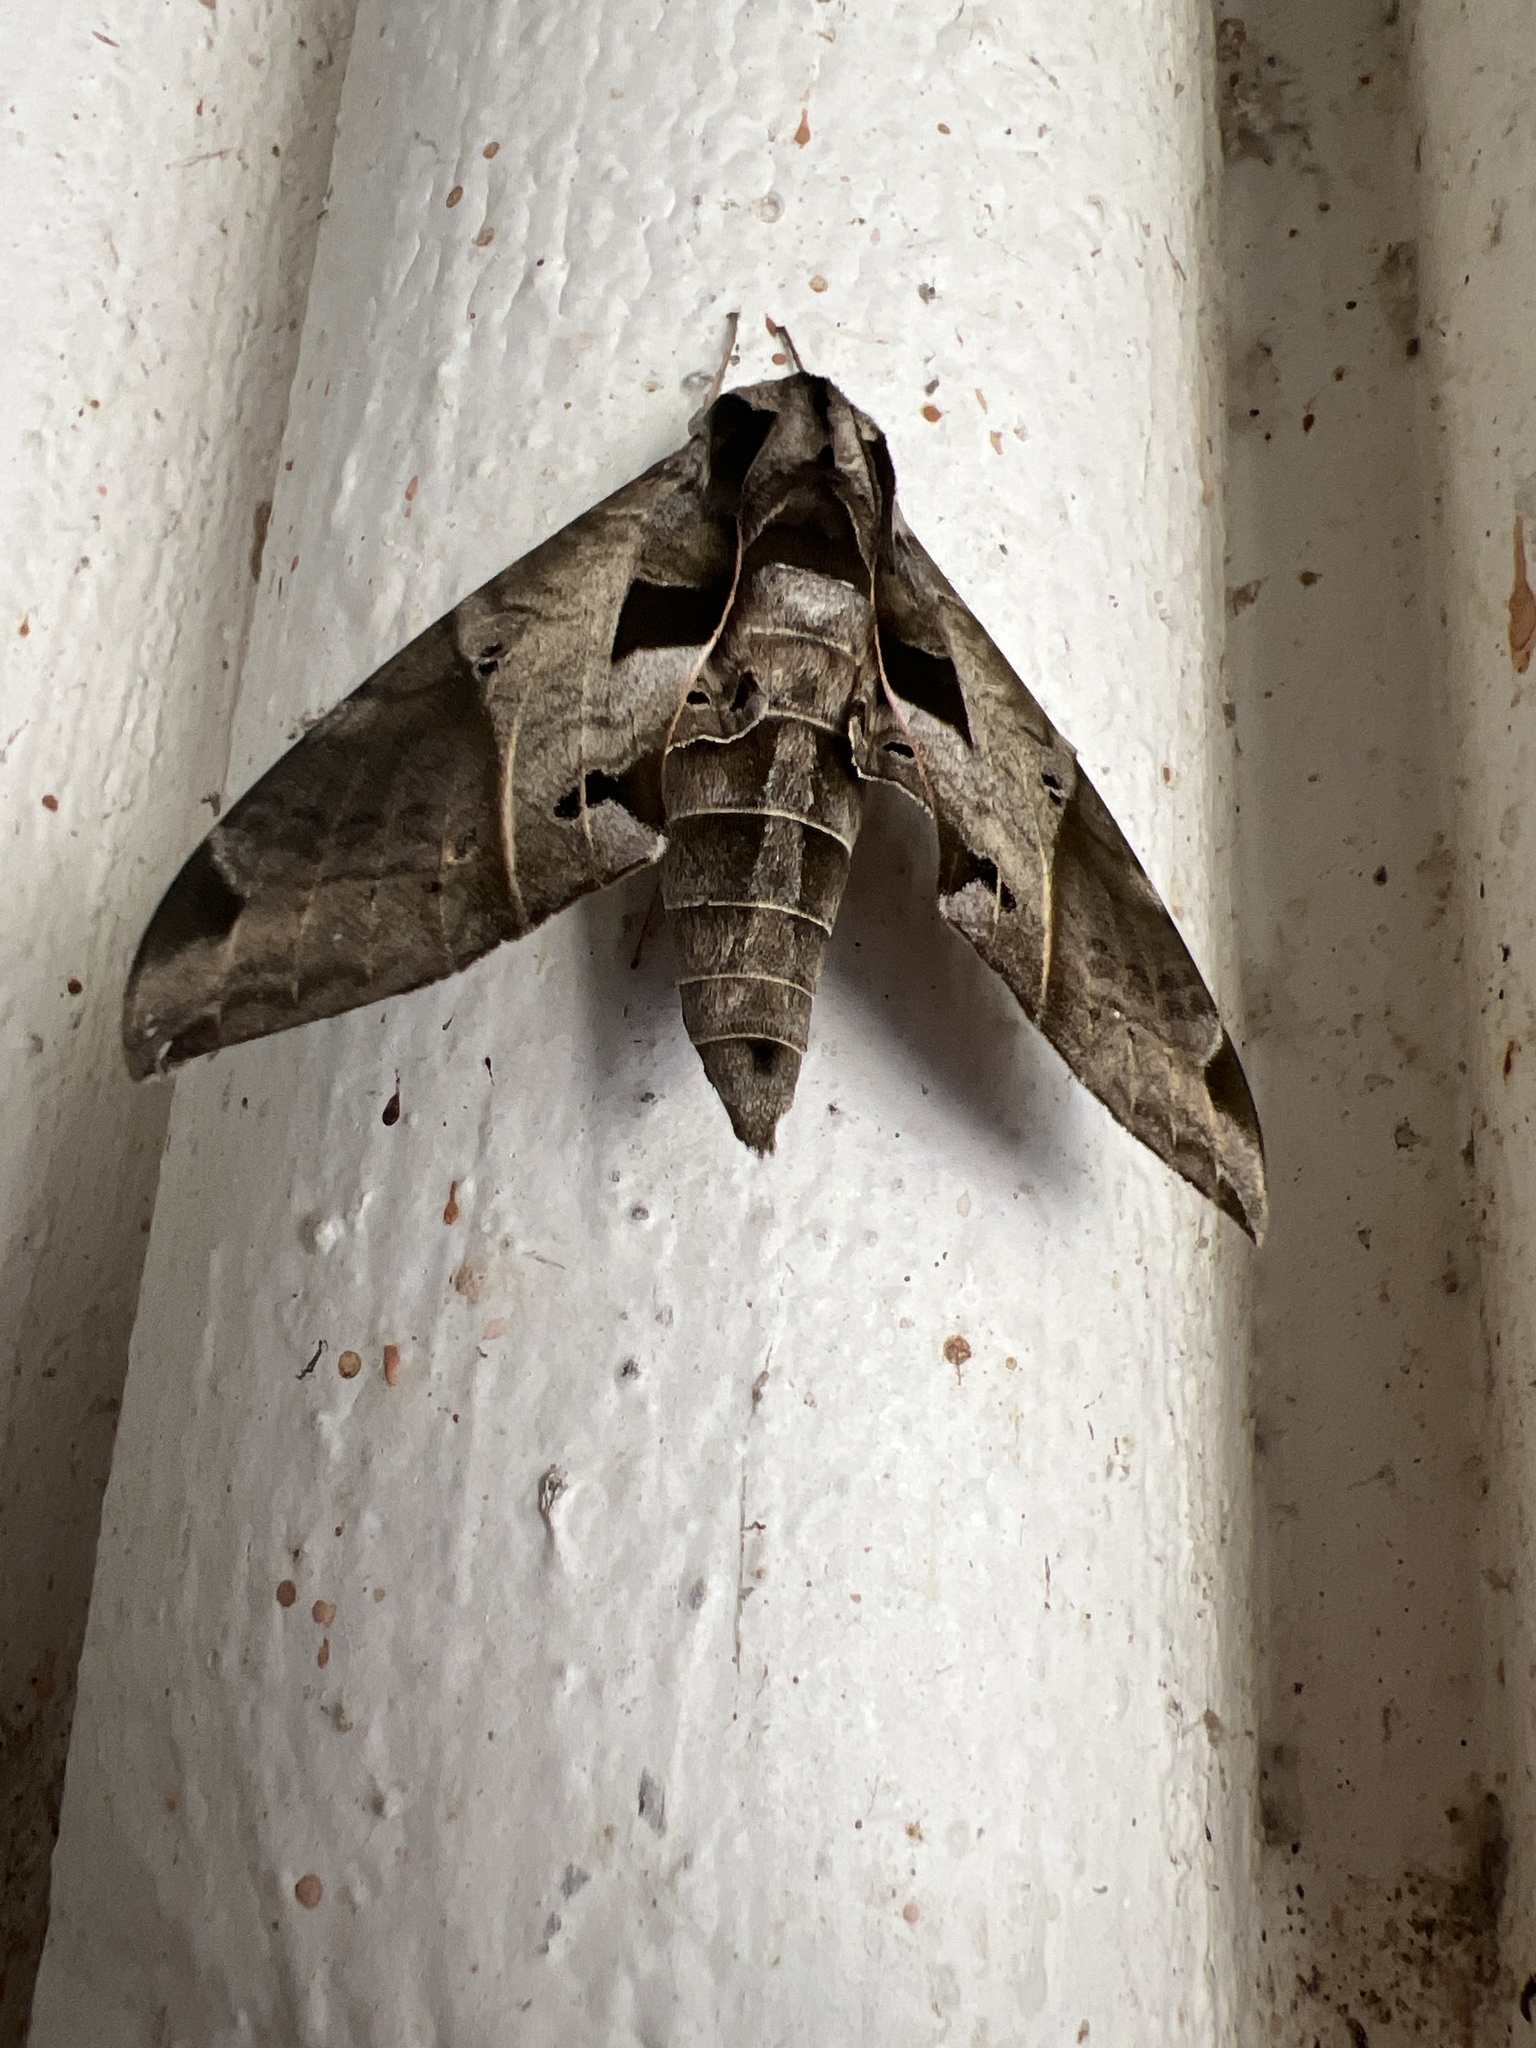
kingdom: Animalia
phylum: Arthropoda
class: Insecta
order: Lepidoptera
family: Sphingidae
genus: Eumorpha
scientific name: Eumorpha satellitia
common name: Satellite sphinx
